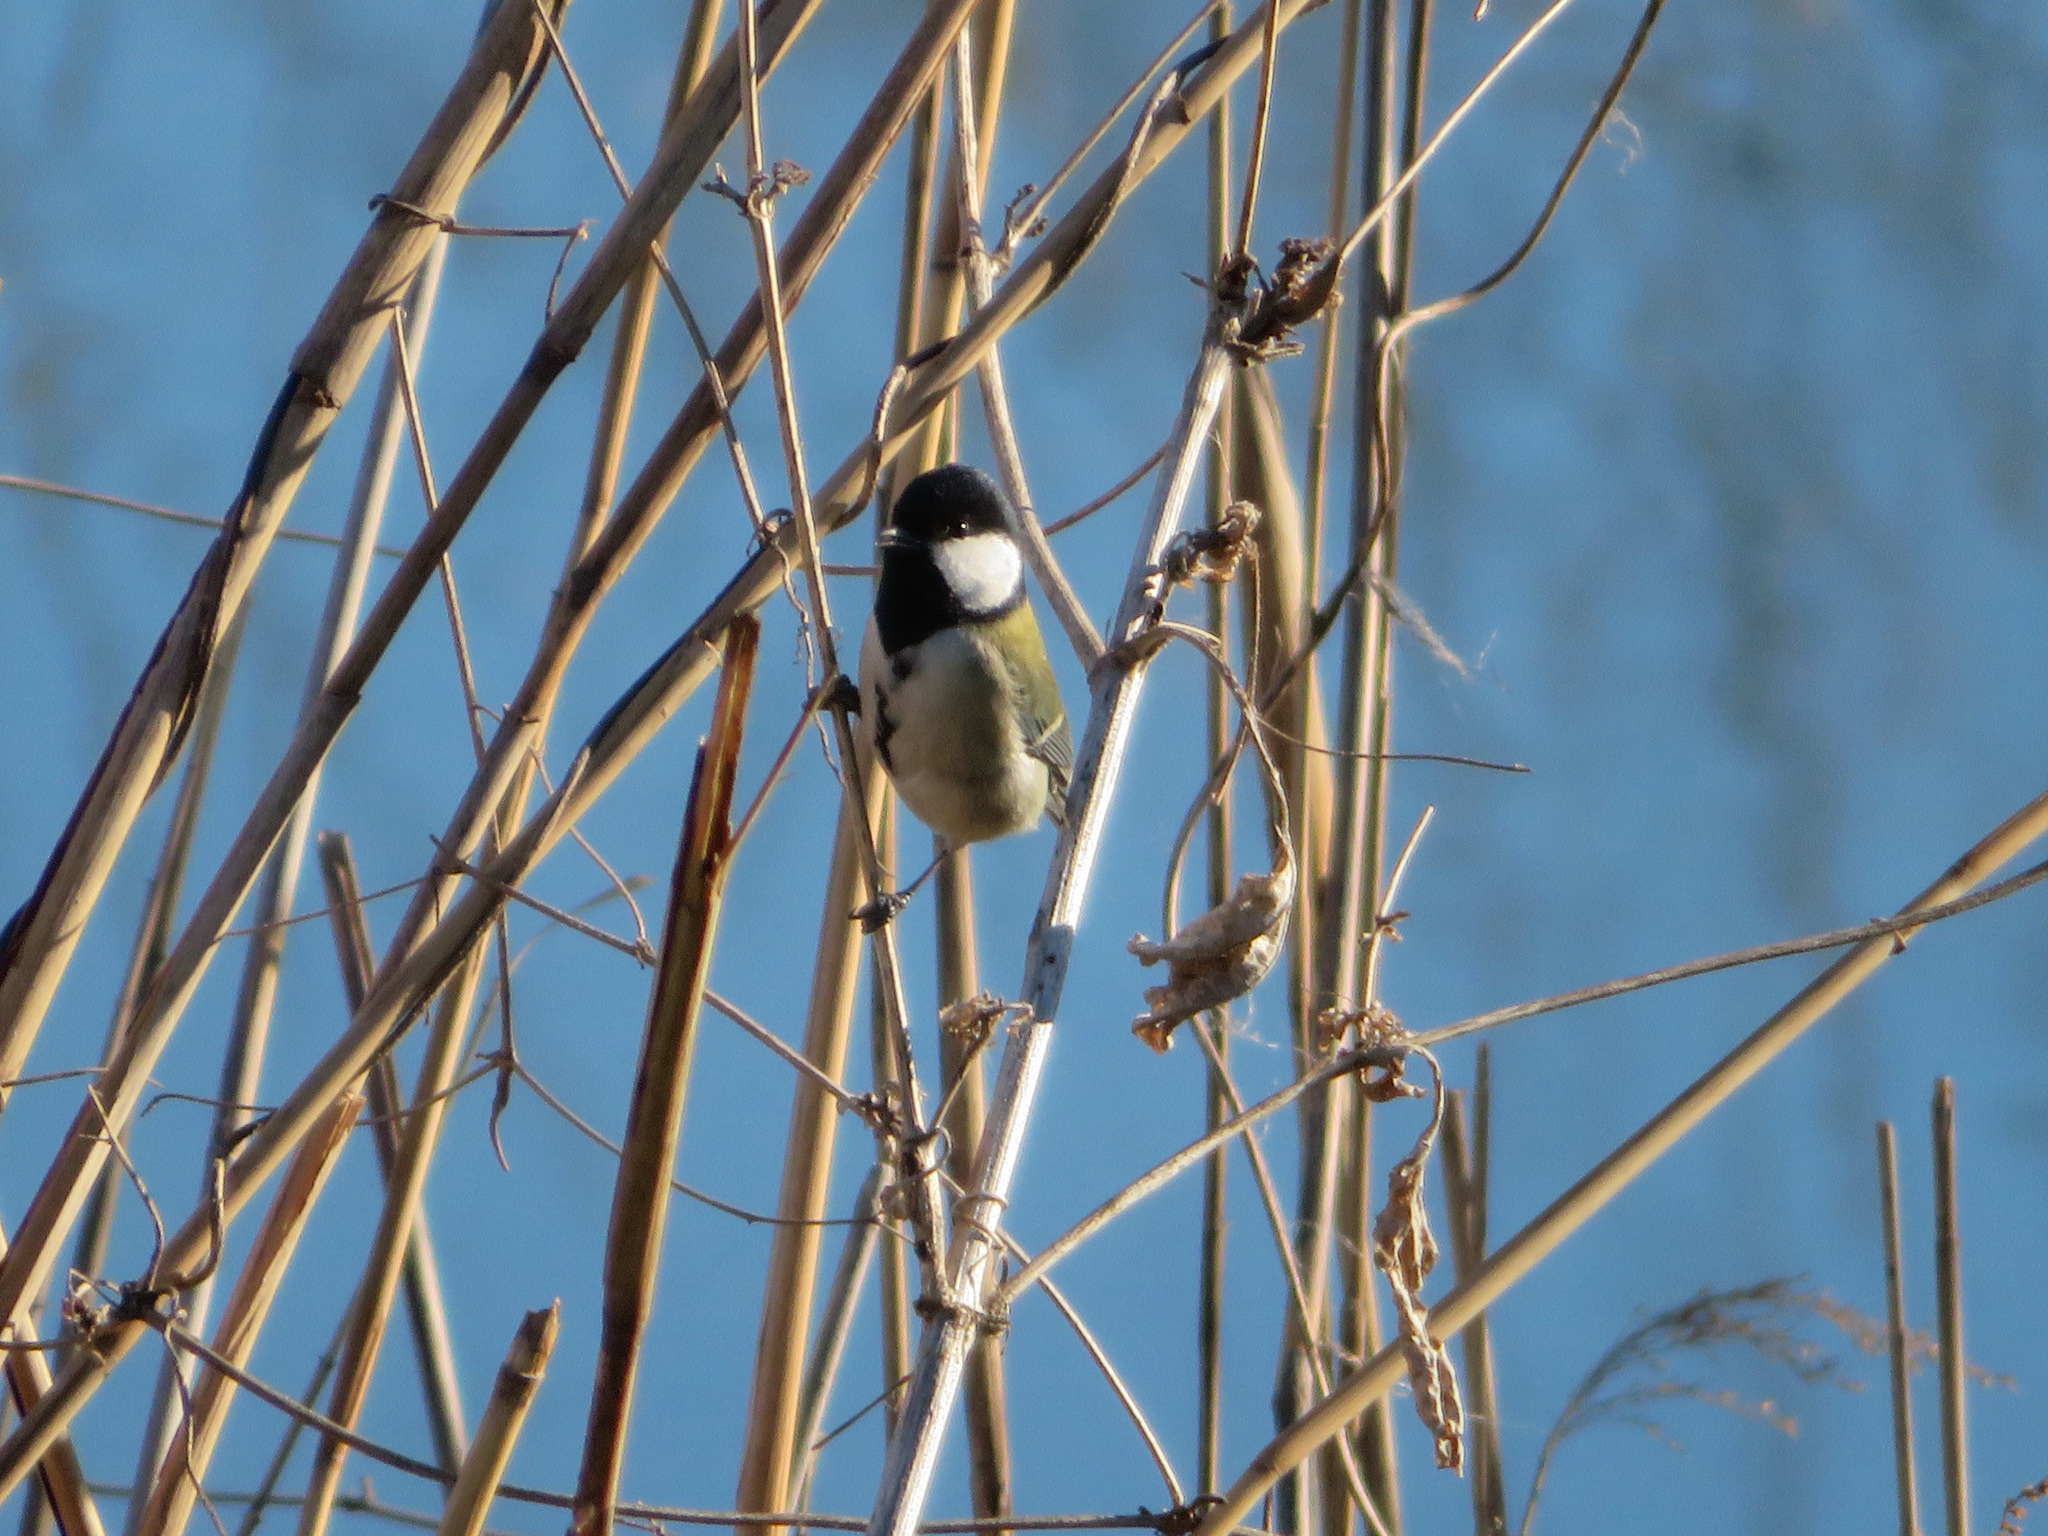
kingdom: Animalia
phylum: Chordata
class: Aves
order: Passeriformes
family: Paridae
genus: Parus
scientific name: Parus minor
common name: Japanese tit
